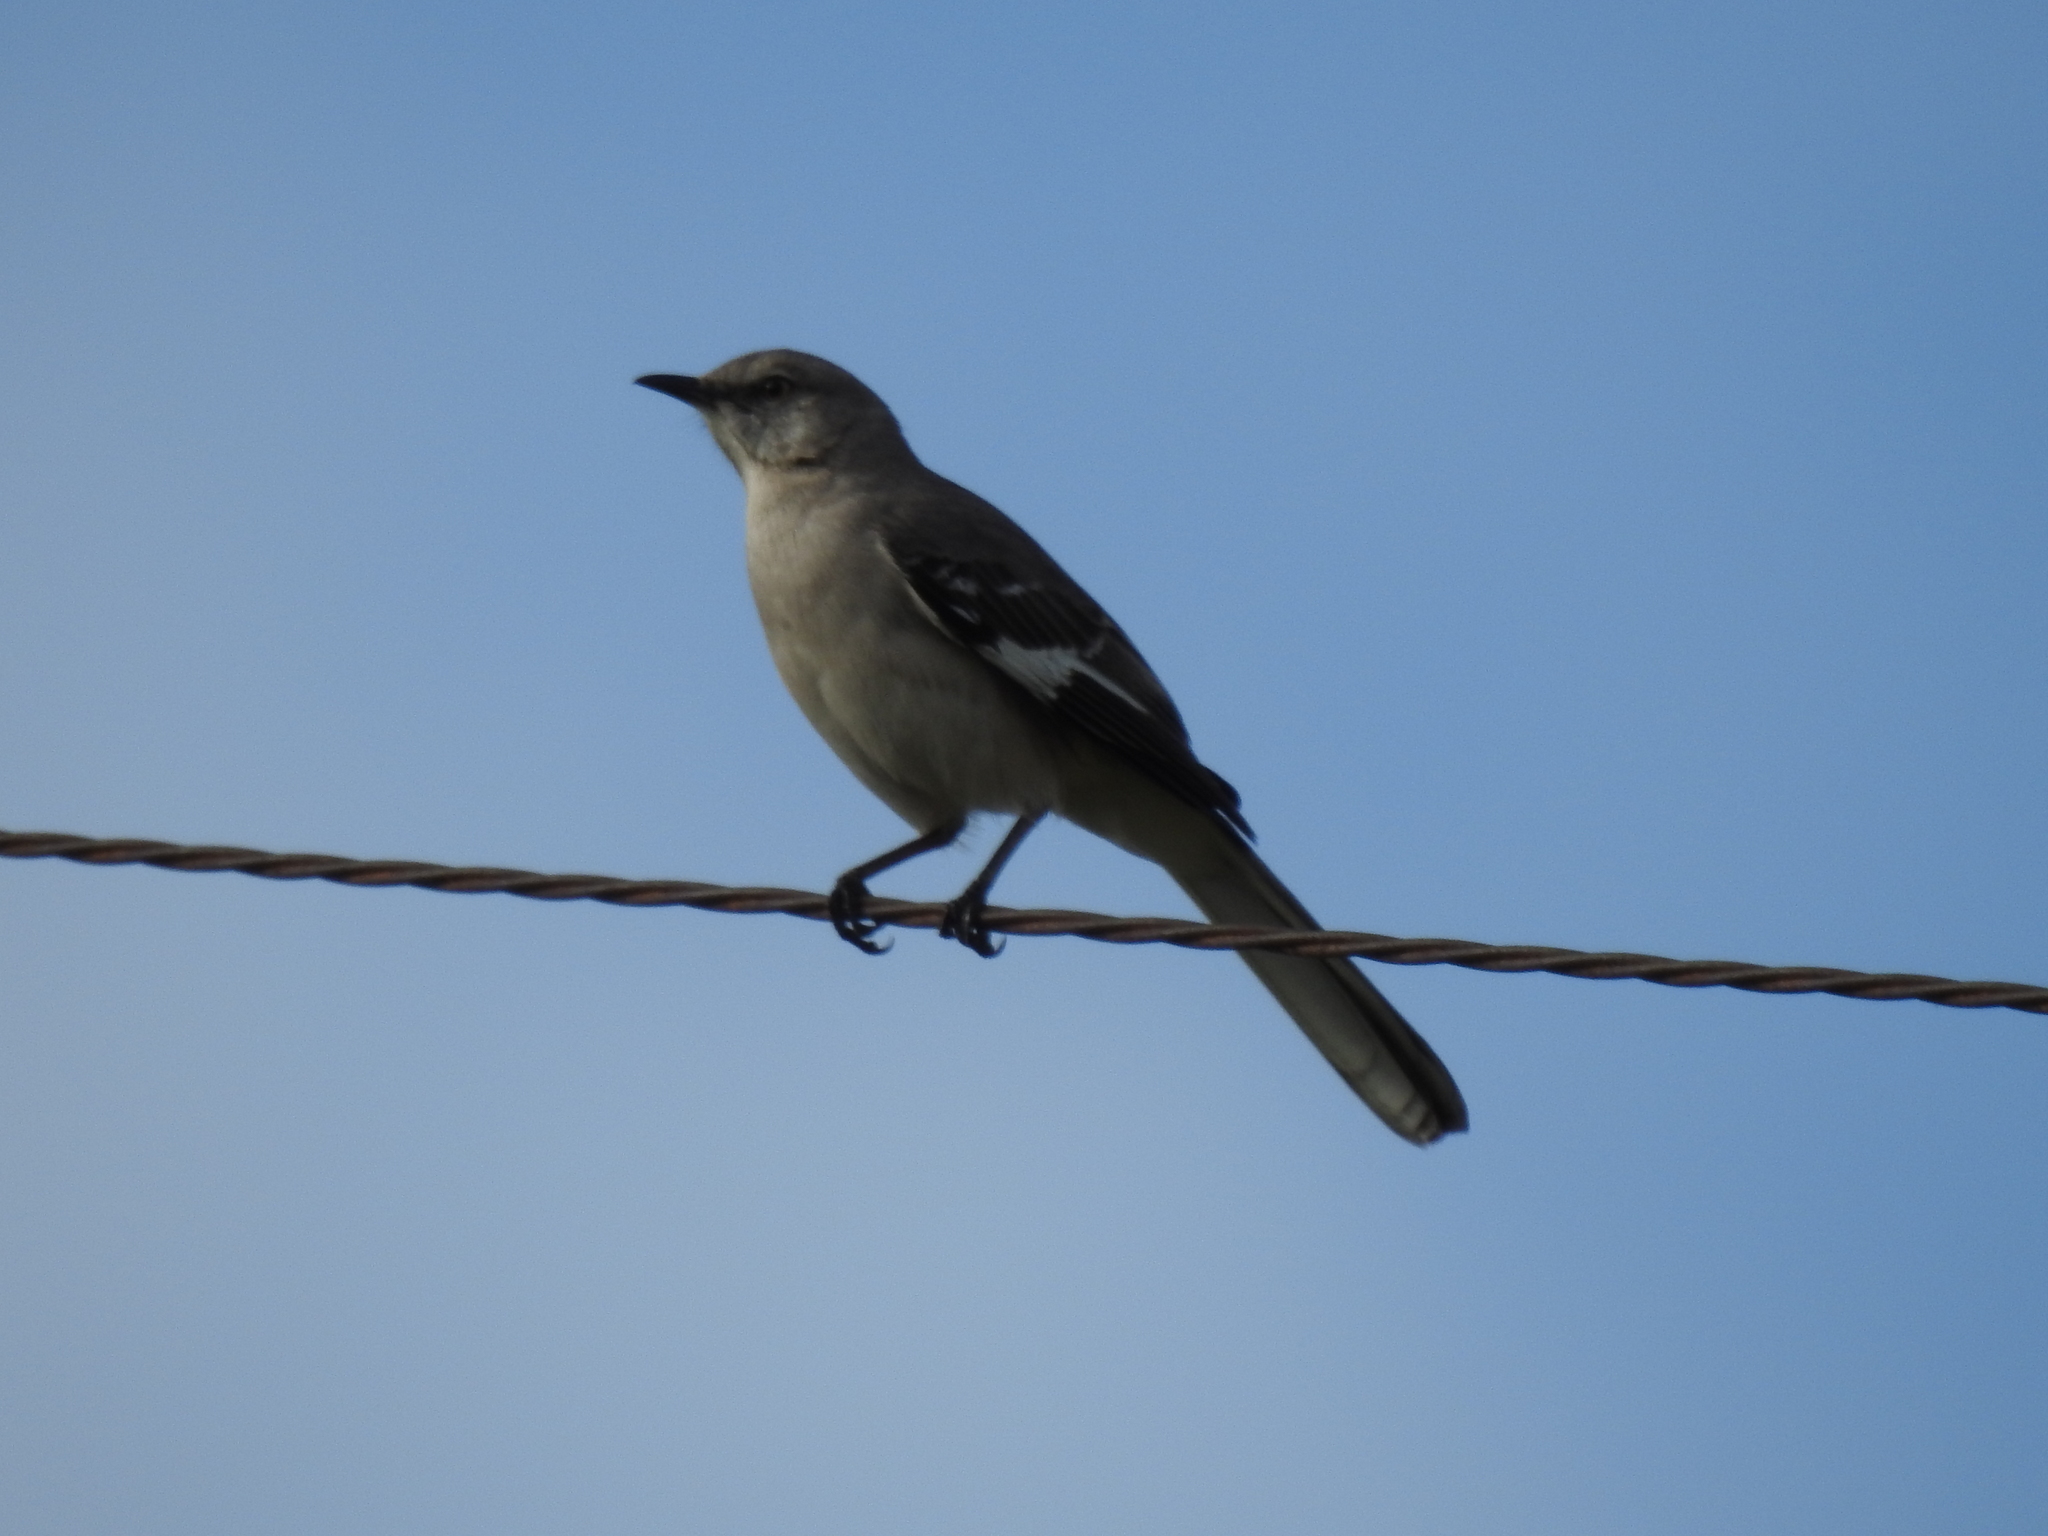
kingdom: Animalia
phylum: Chordata
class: Aves
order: Passeriformes
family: Mimidae
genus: Mimus
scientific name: Mimus polyglottos
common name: Northern mockingbird
